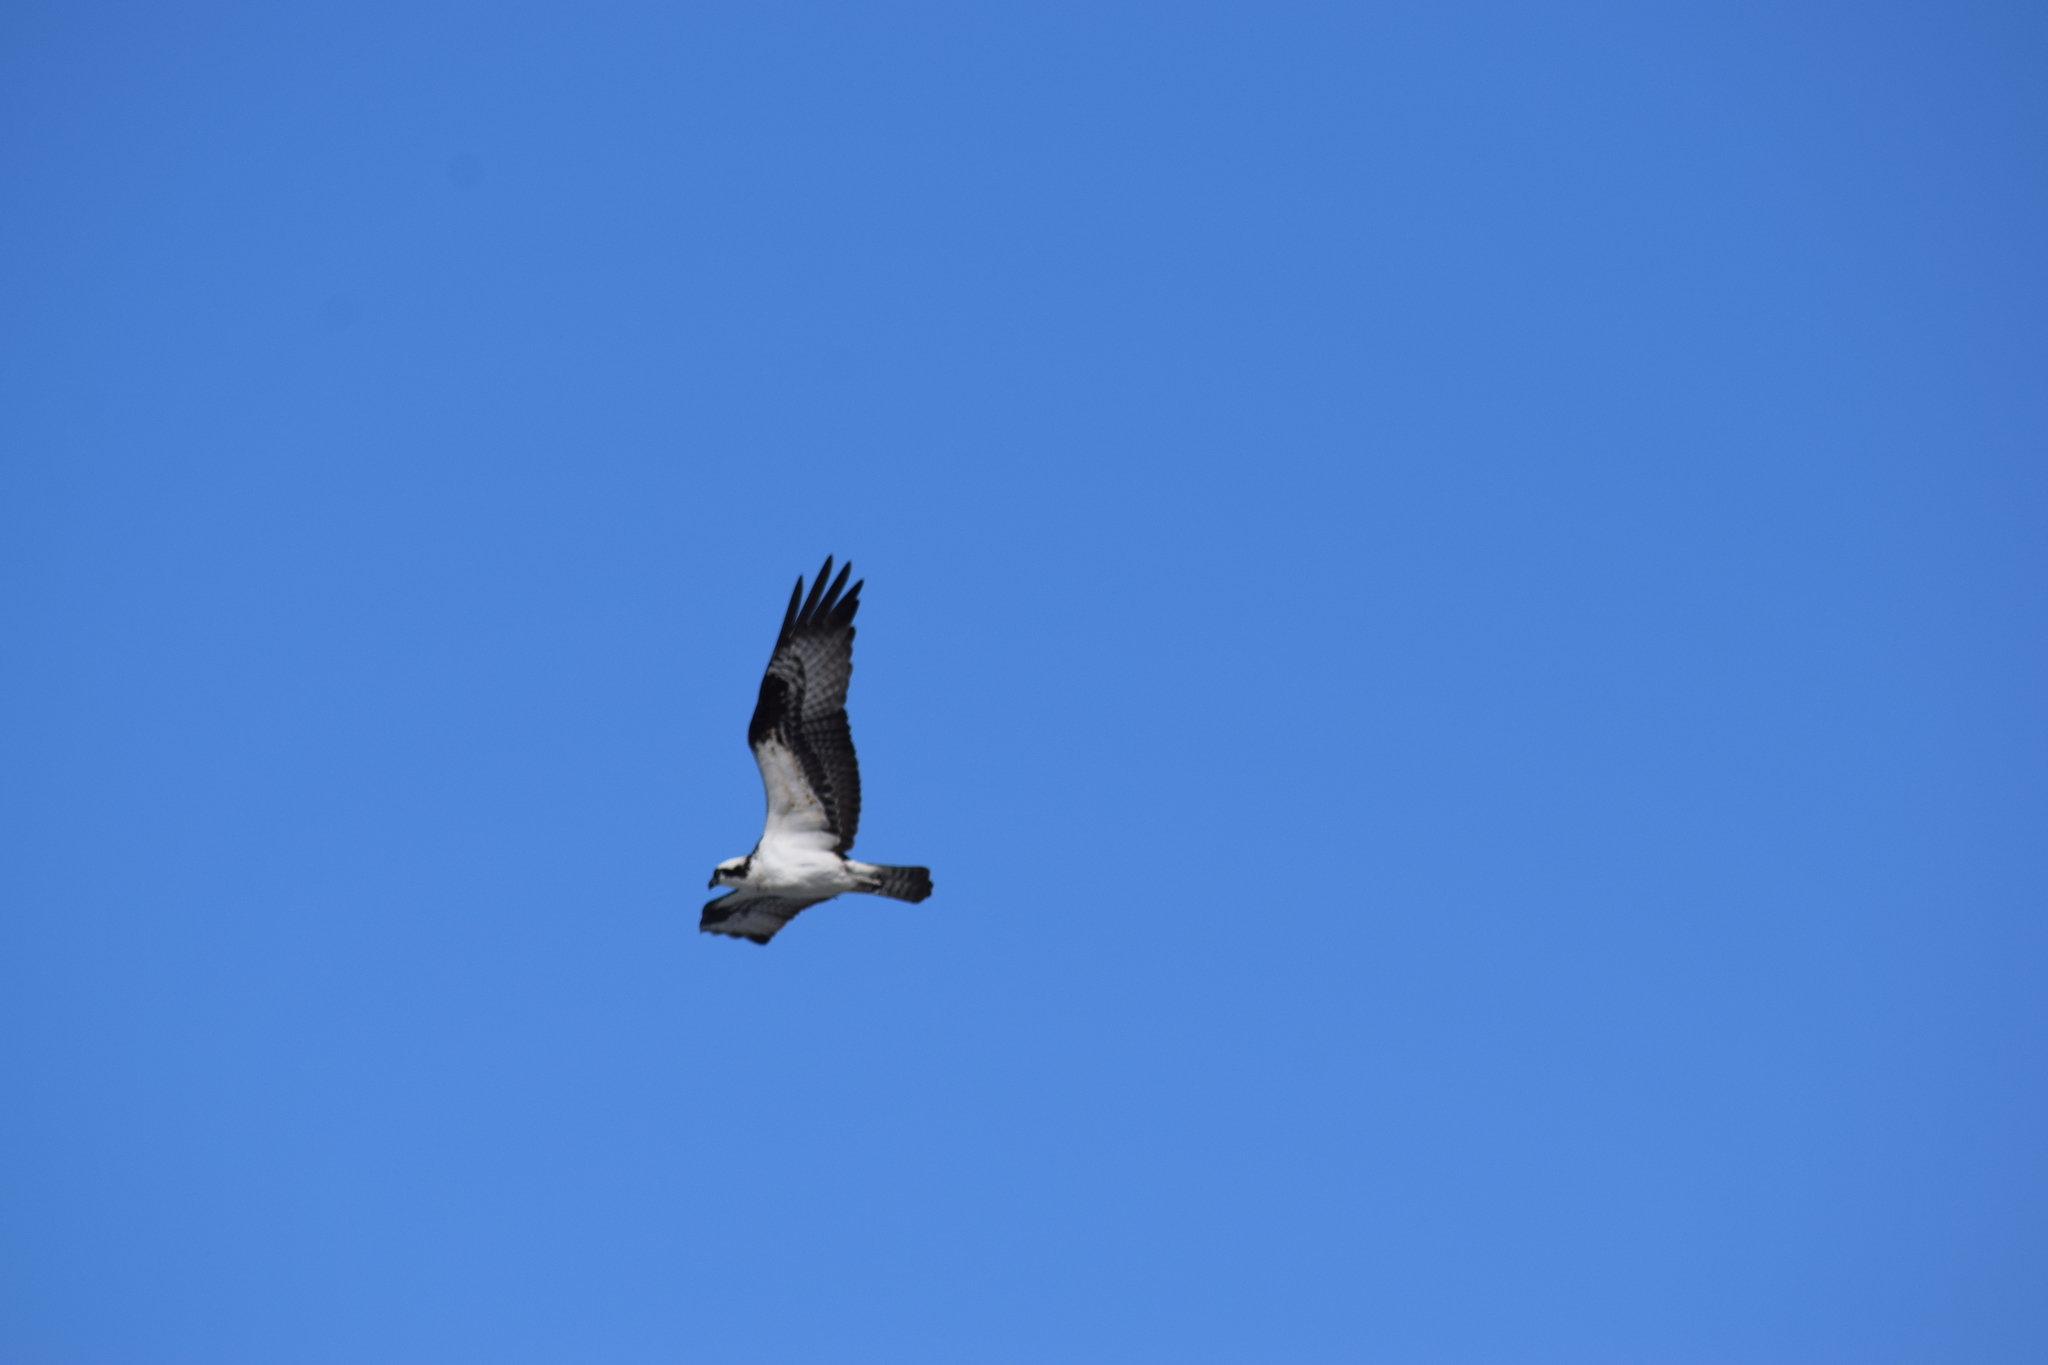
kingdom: Animalia
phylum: Chordata
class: Aves
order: Accipitriformes
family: Pandionidae
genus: Pandion
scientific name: Pandion haliaetus
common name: Osprey
